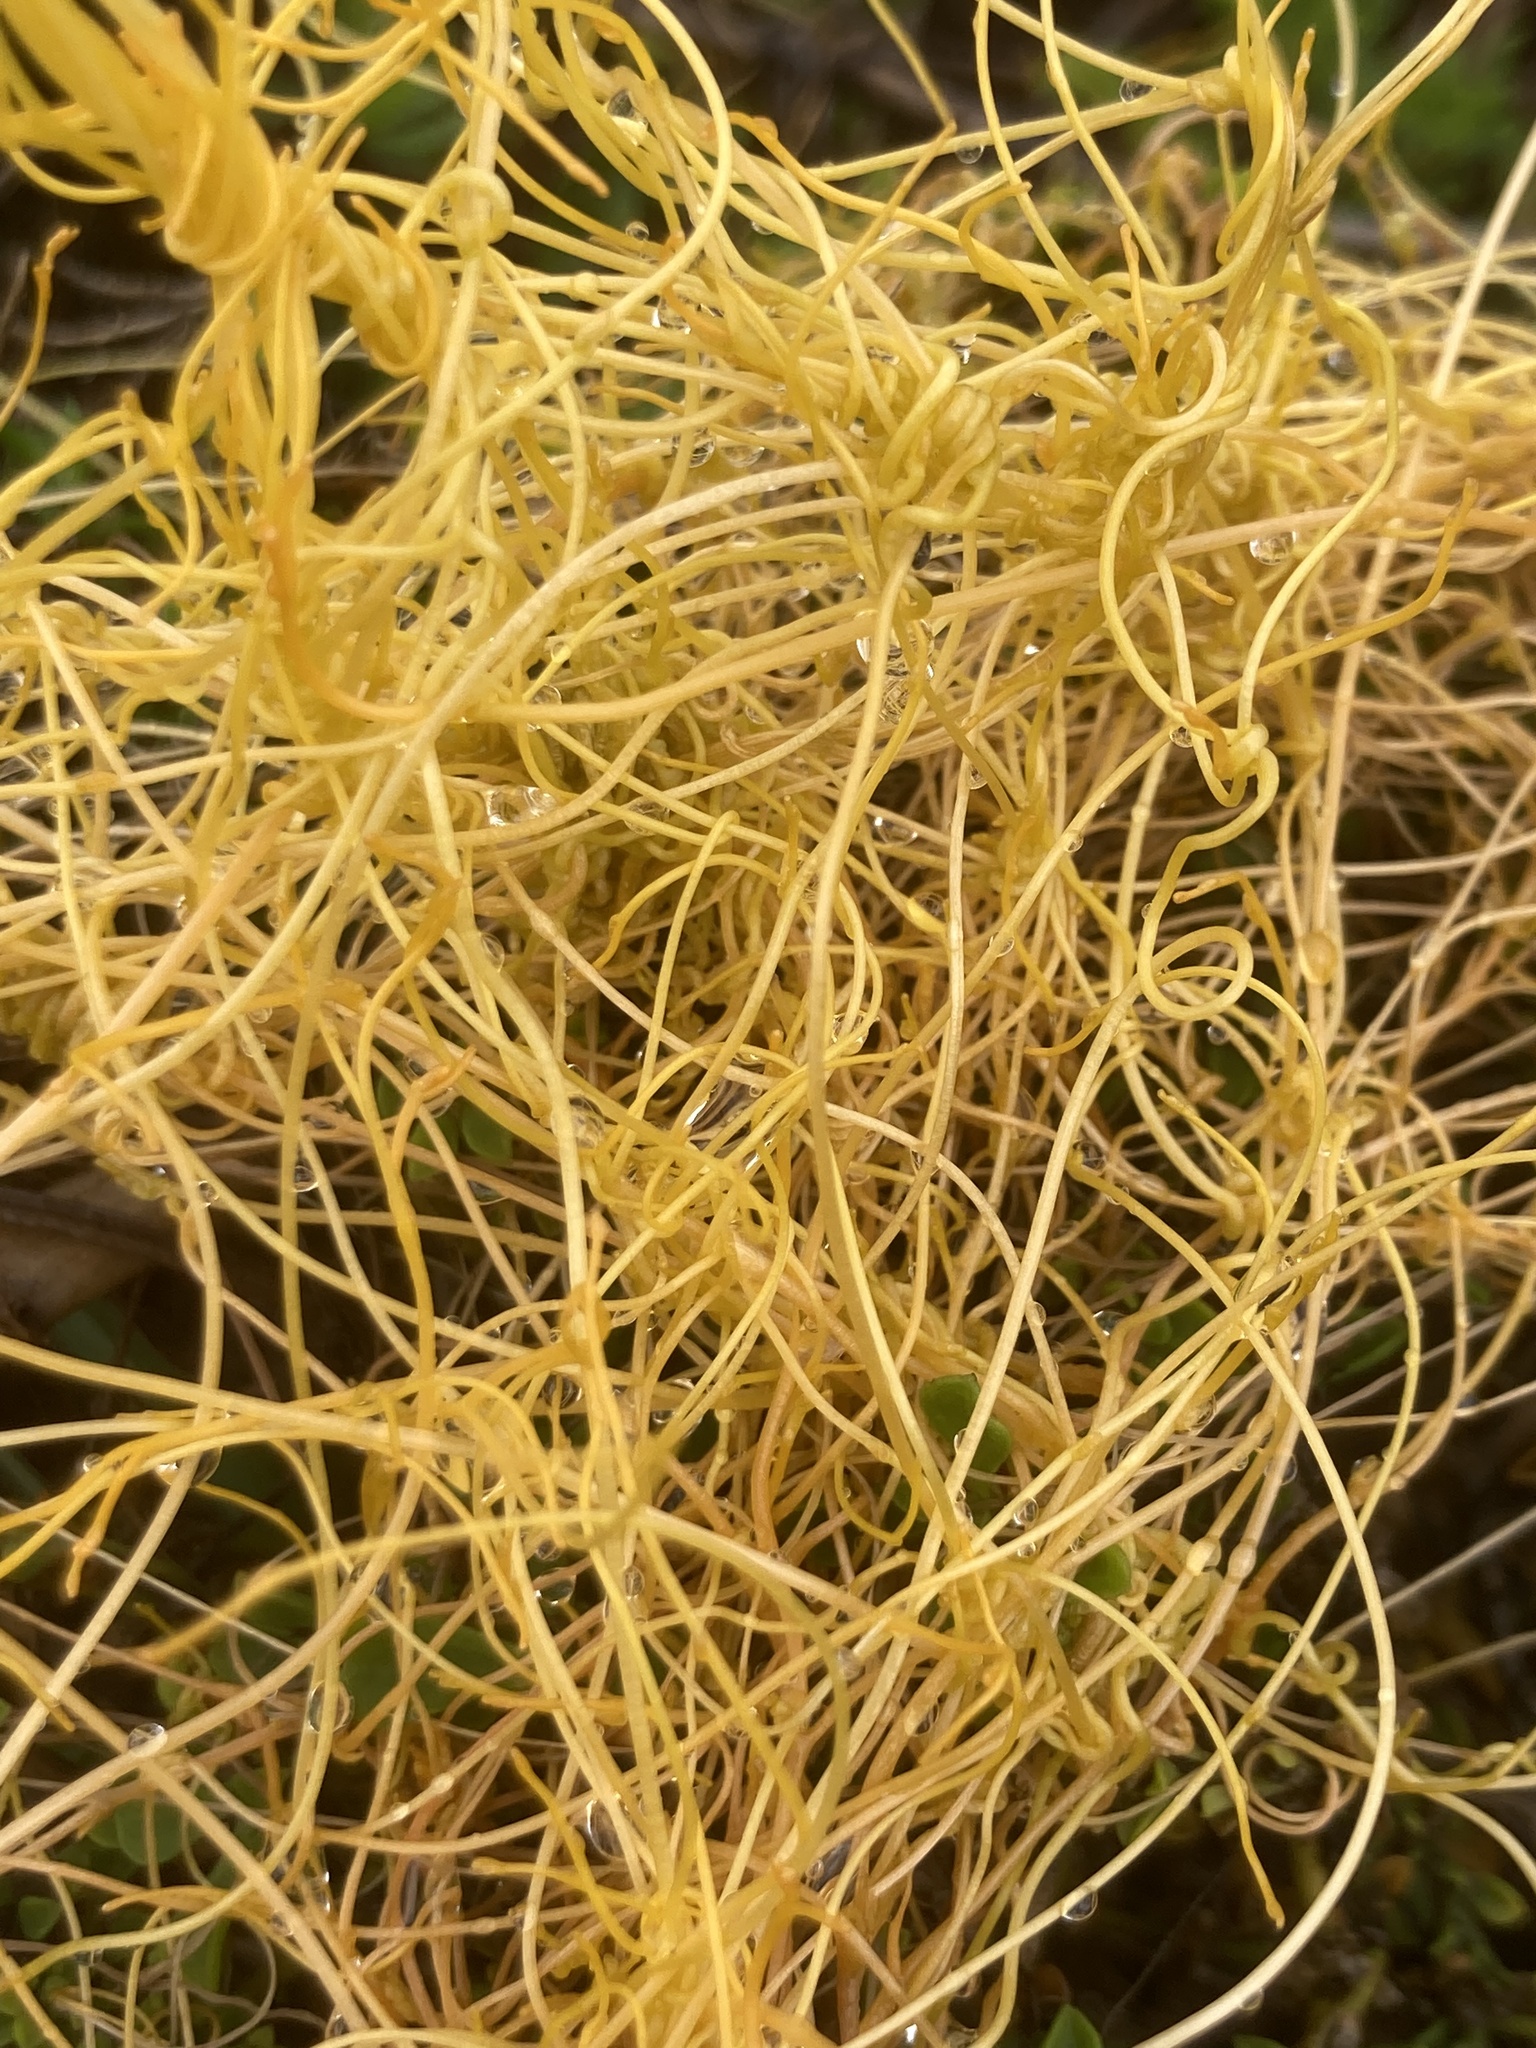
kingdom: Plantae
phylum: Tracheophyta
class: Magnoliopsida
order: Solanales
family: Convolvulaceae
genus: Cuscuta
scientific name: Cuscuta campestris
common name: Yellow dodder
